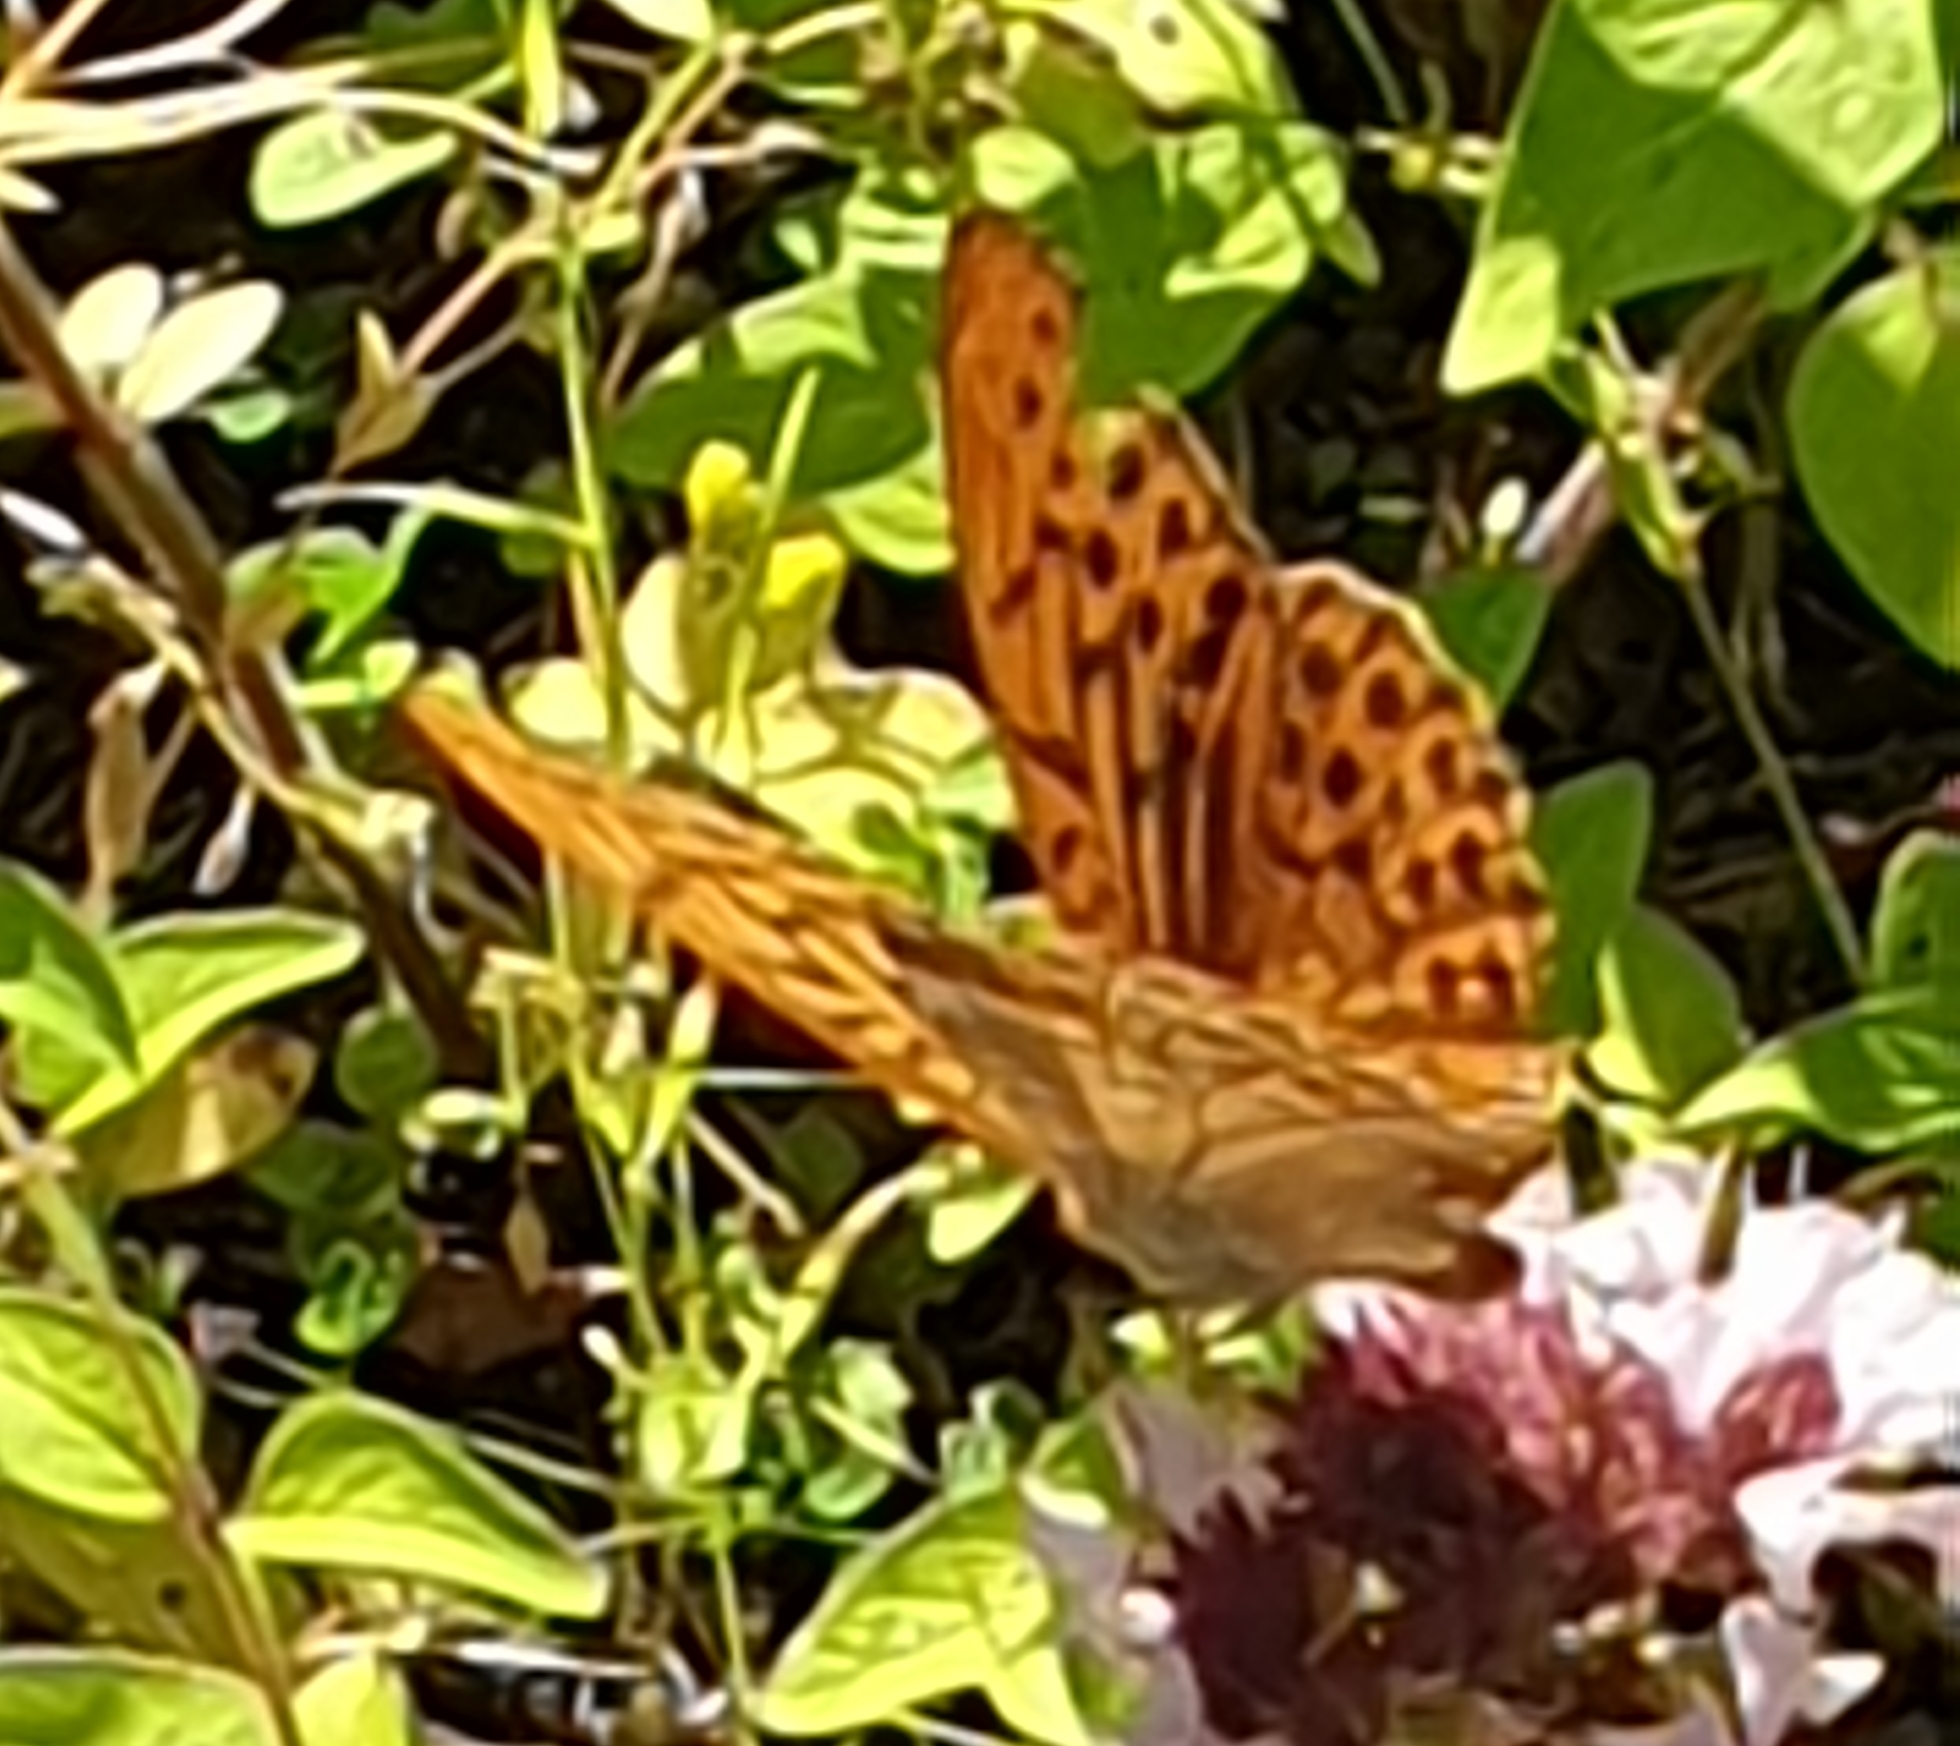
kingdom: Animalia
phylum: Arthropoda
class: Insecta
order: Lepidoptera
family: Nymphalidae
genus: Argynnis
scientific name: Argynnis paphia
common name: Silver-washed fritillary
